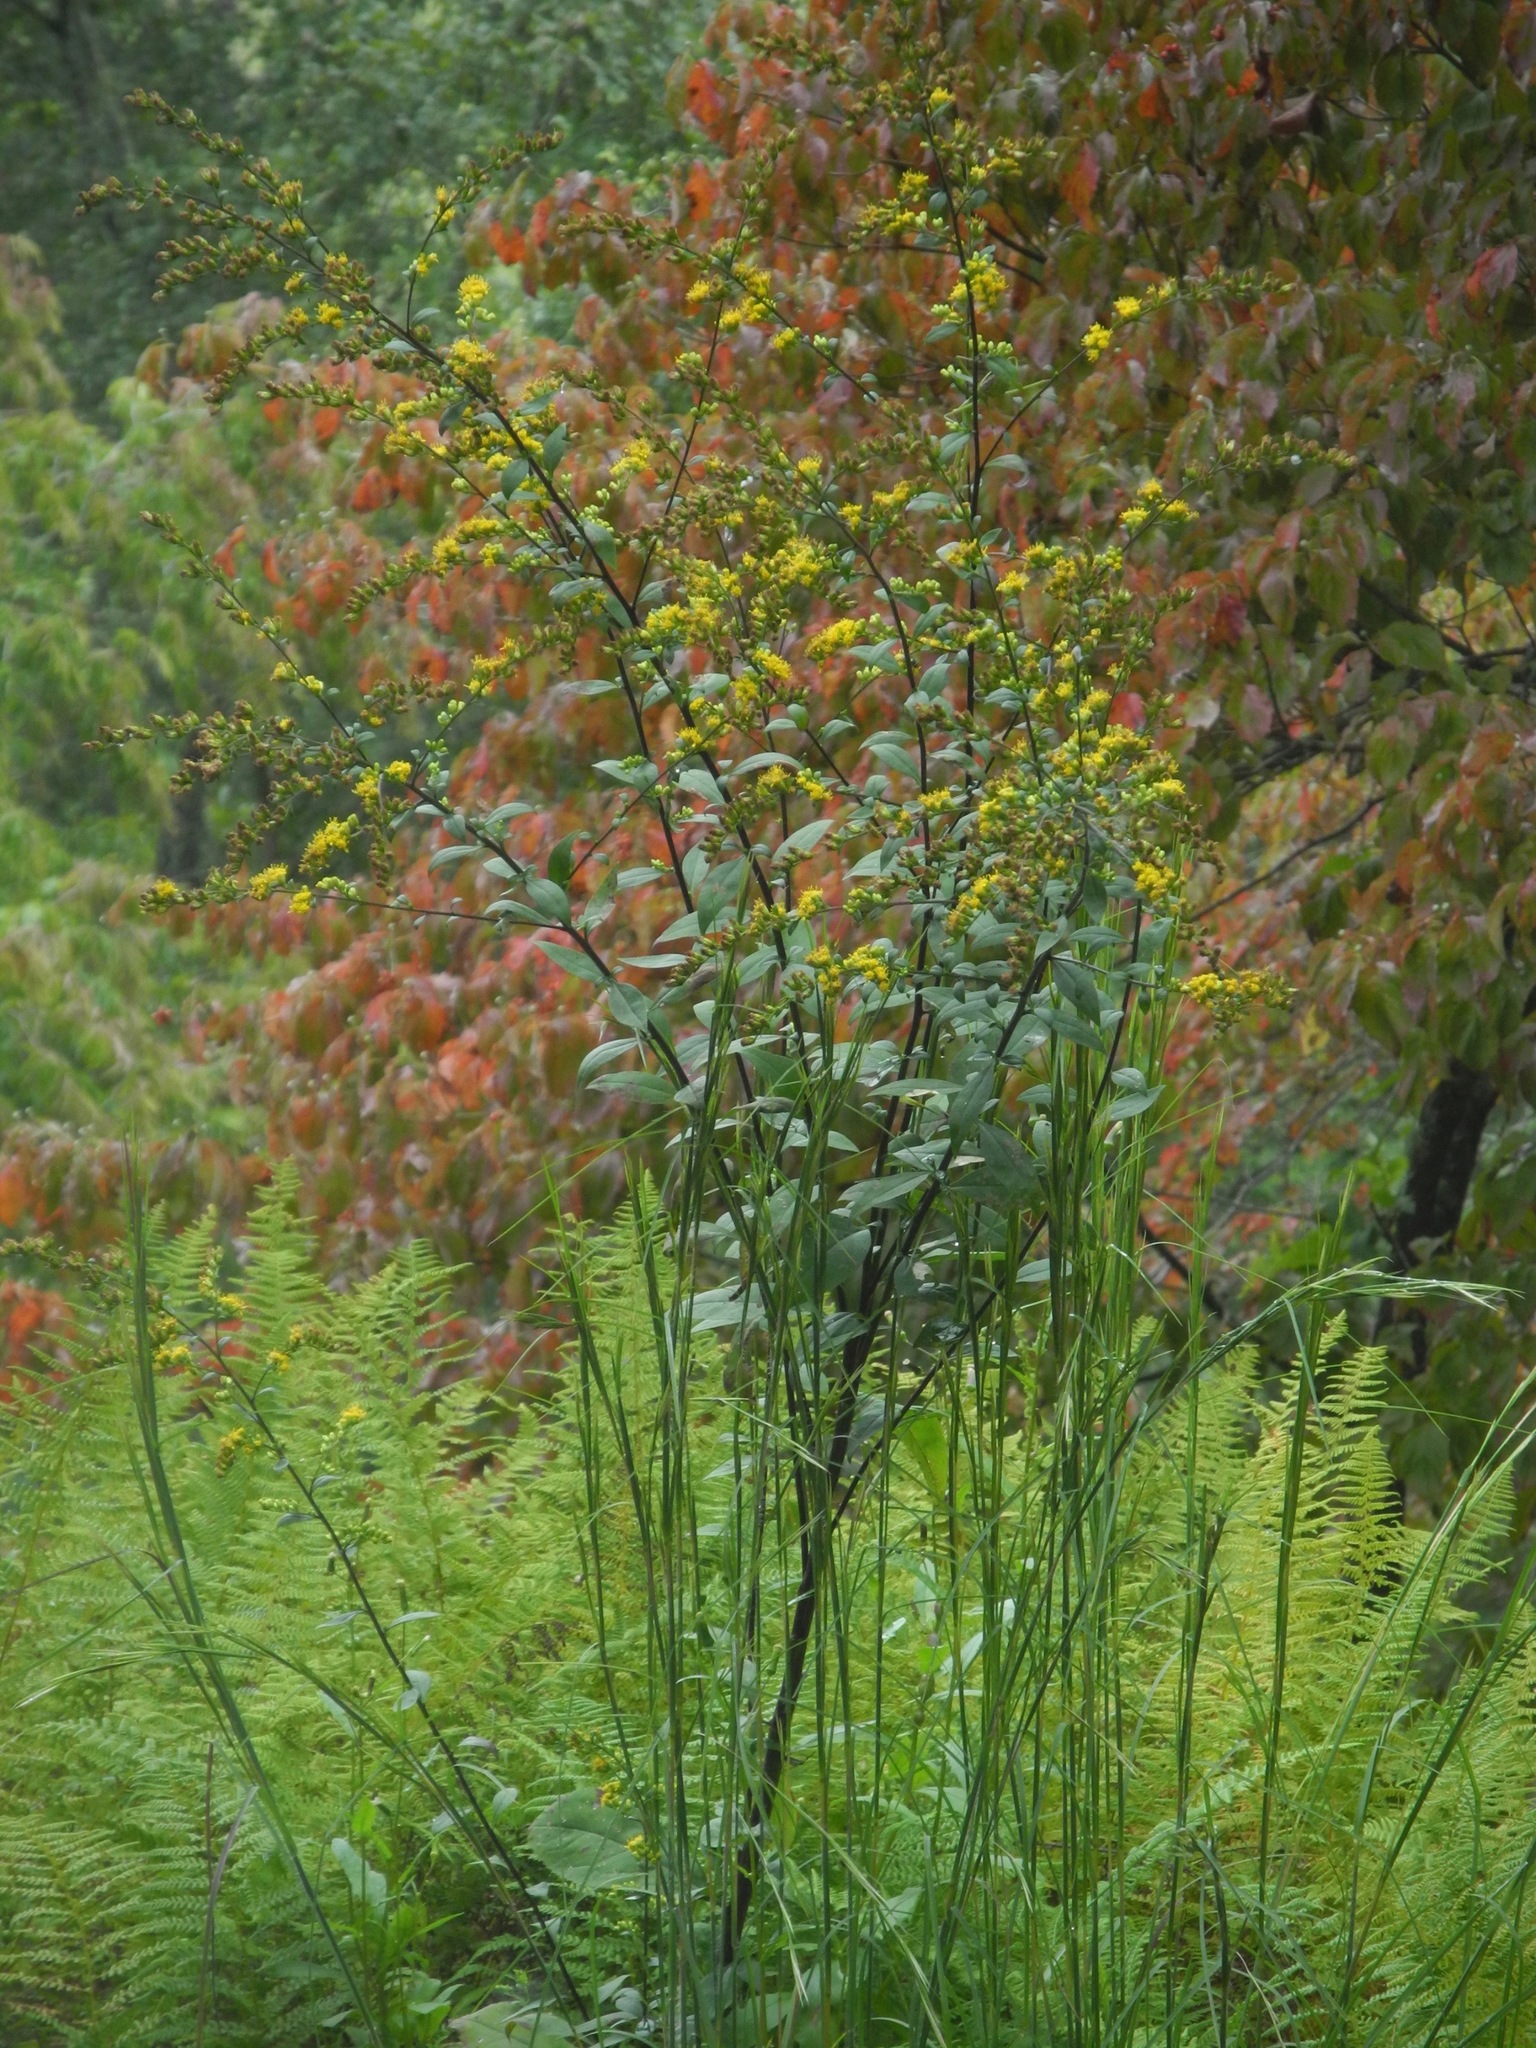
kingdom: Plantae
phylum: Tracheophyta
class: Magnoliopsida
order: Asterales
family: Asteraceae
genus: Solidago
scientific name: Solidago patula
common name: Rough-leaf goldenrod
